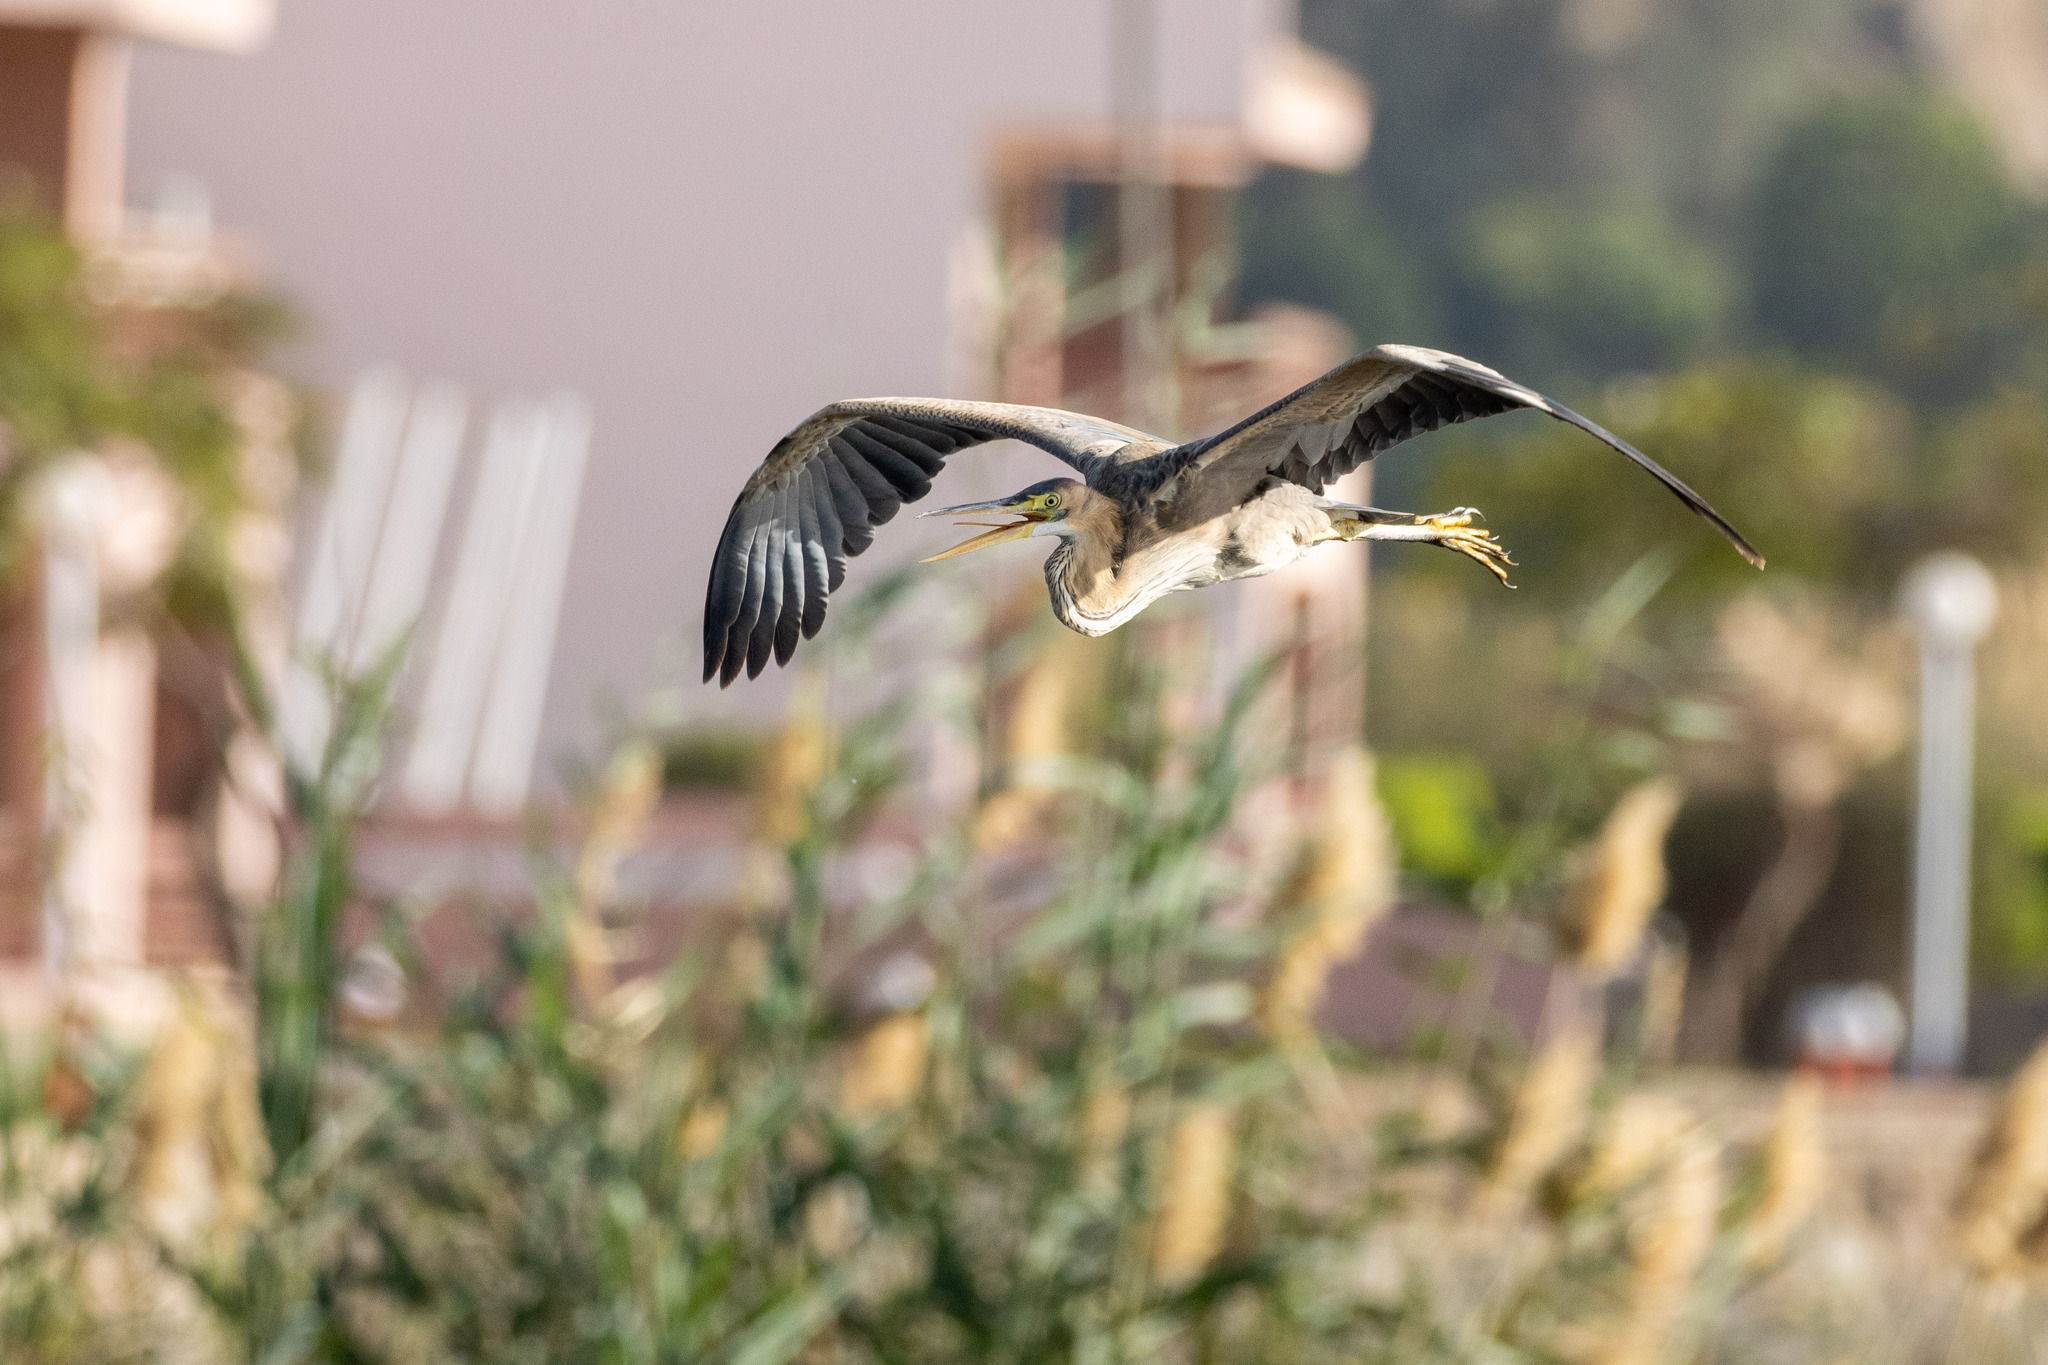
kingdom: Animalia
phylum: Chordata
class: Aves
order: Pelecaniformes
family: Ardeidae
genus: Ardea
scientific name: Ardea purpurea
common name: Purple heron
